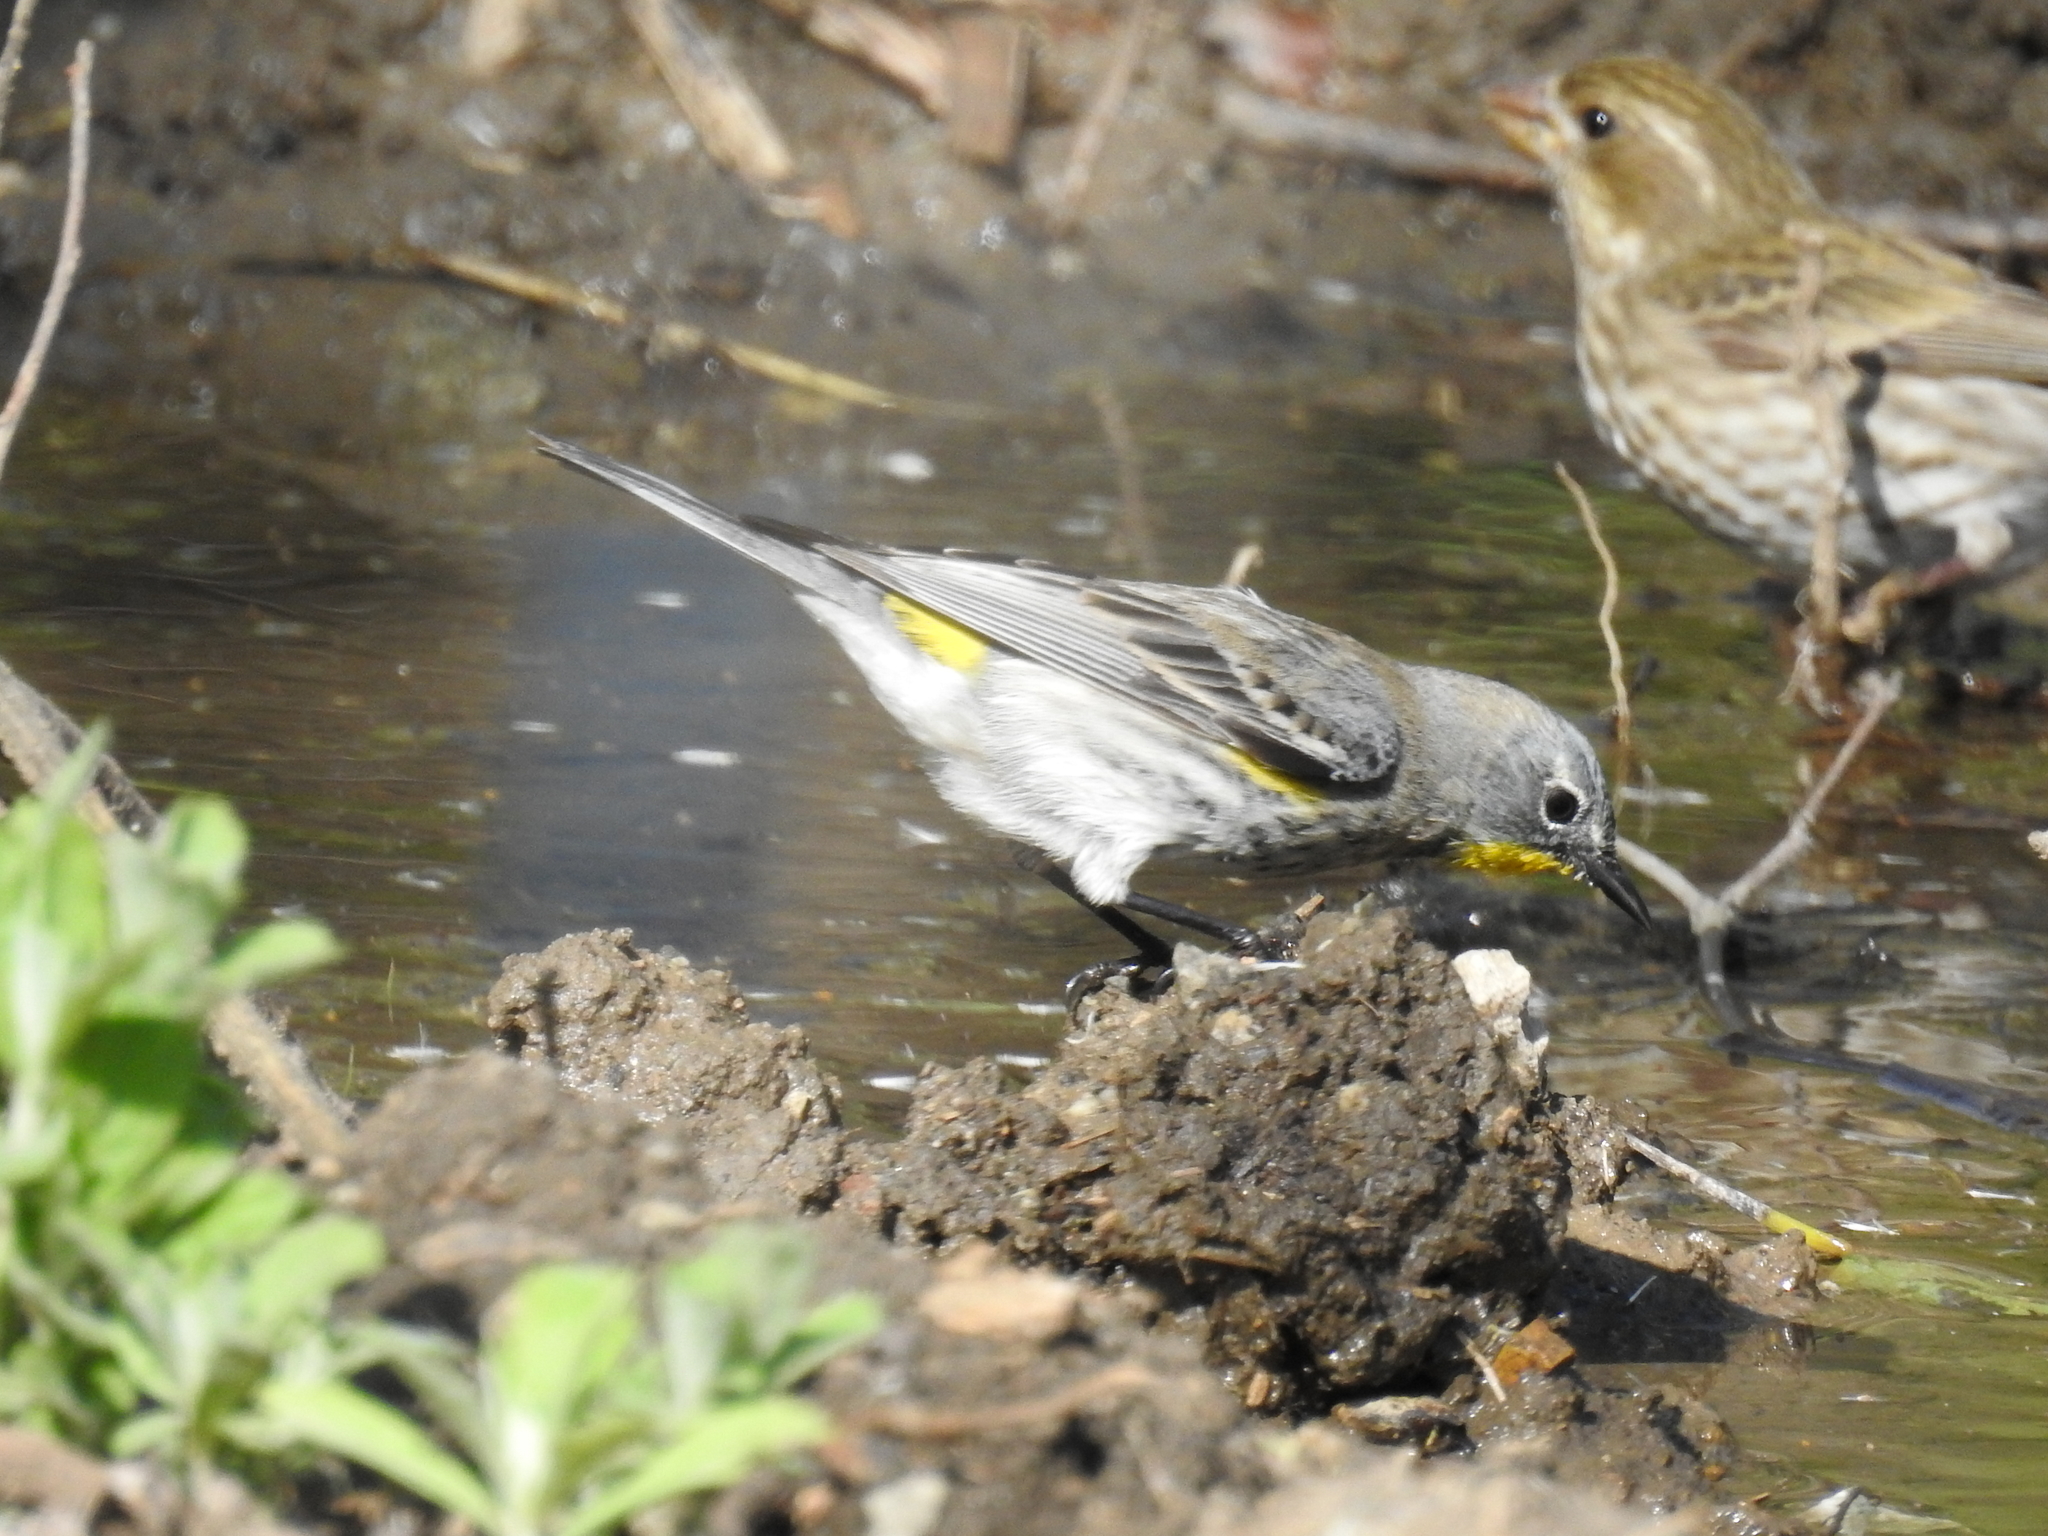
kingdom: Animalia
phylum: Chordata
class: Aves
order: Passeriformes
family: Parulidae
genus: Setophaga
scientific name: Setophaga coronata
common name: Myrtle warbler
